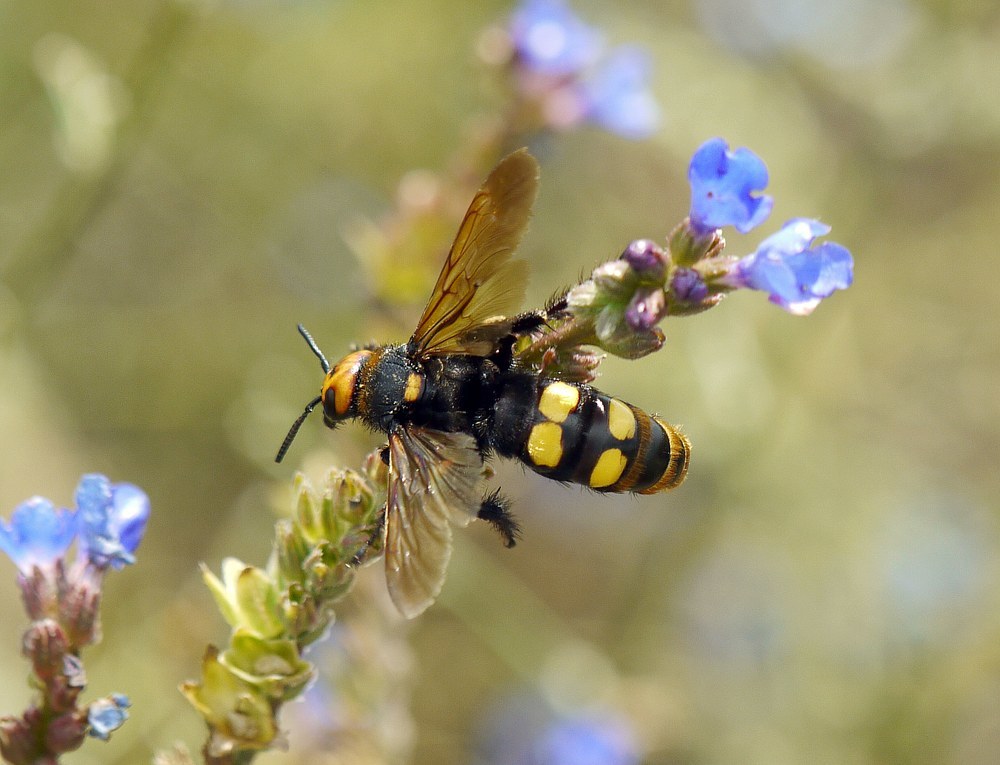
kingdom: Animalia
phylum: Arthropoda
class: Insecta
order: Hymenoptera
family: Scoliidae
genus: Megascolia
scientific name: Megascolia maculata
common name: Mammoth wasp
